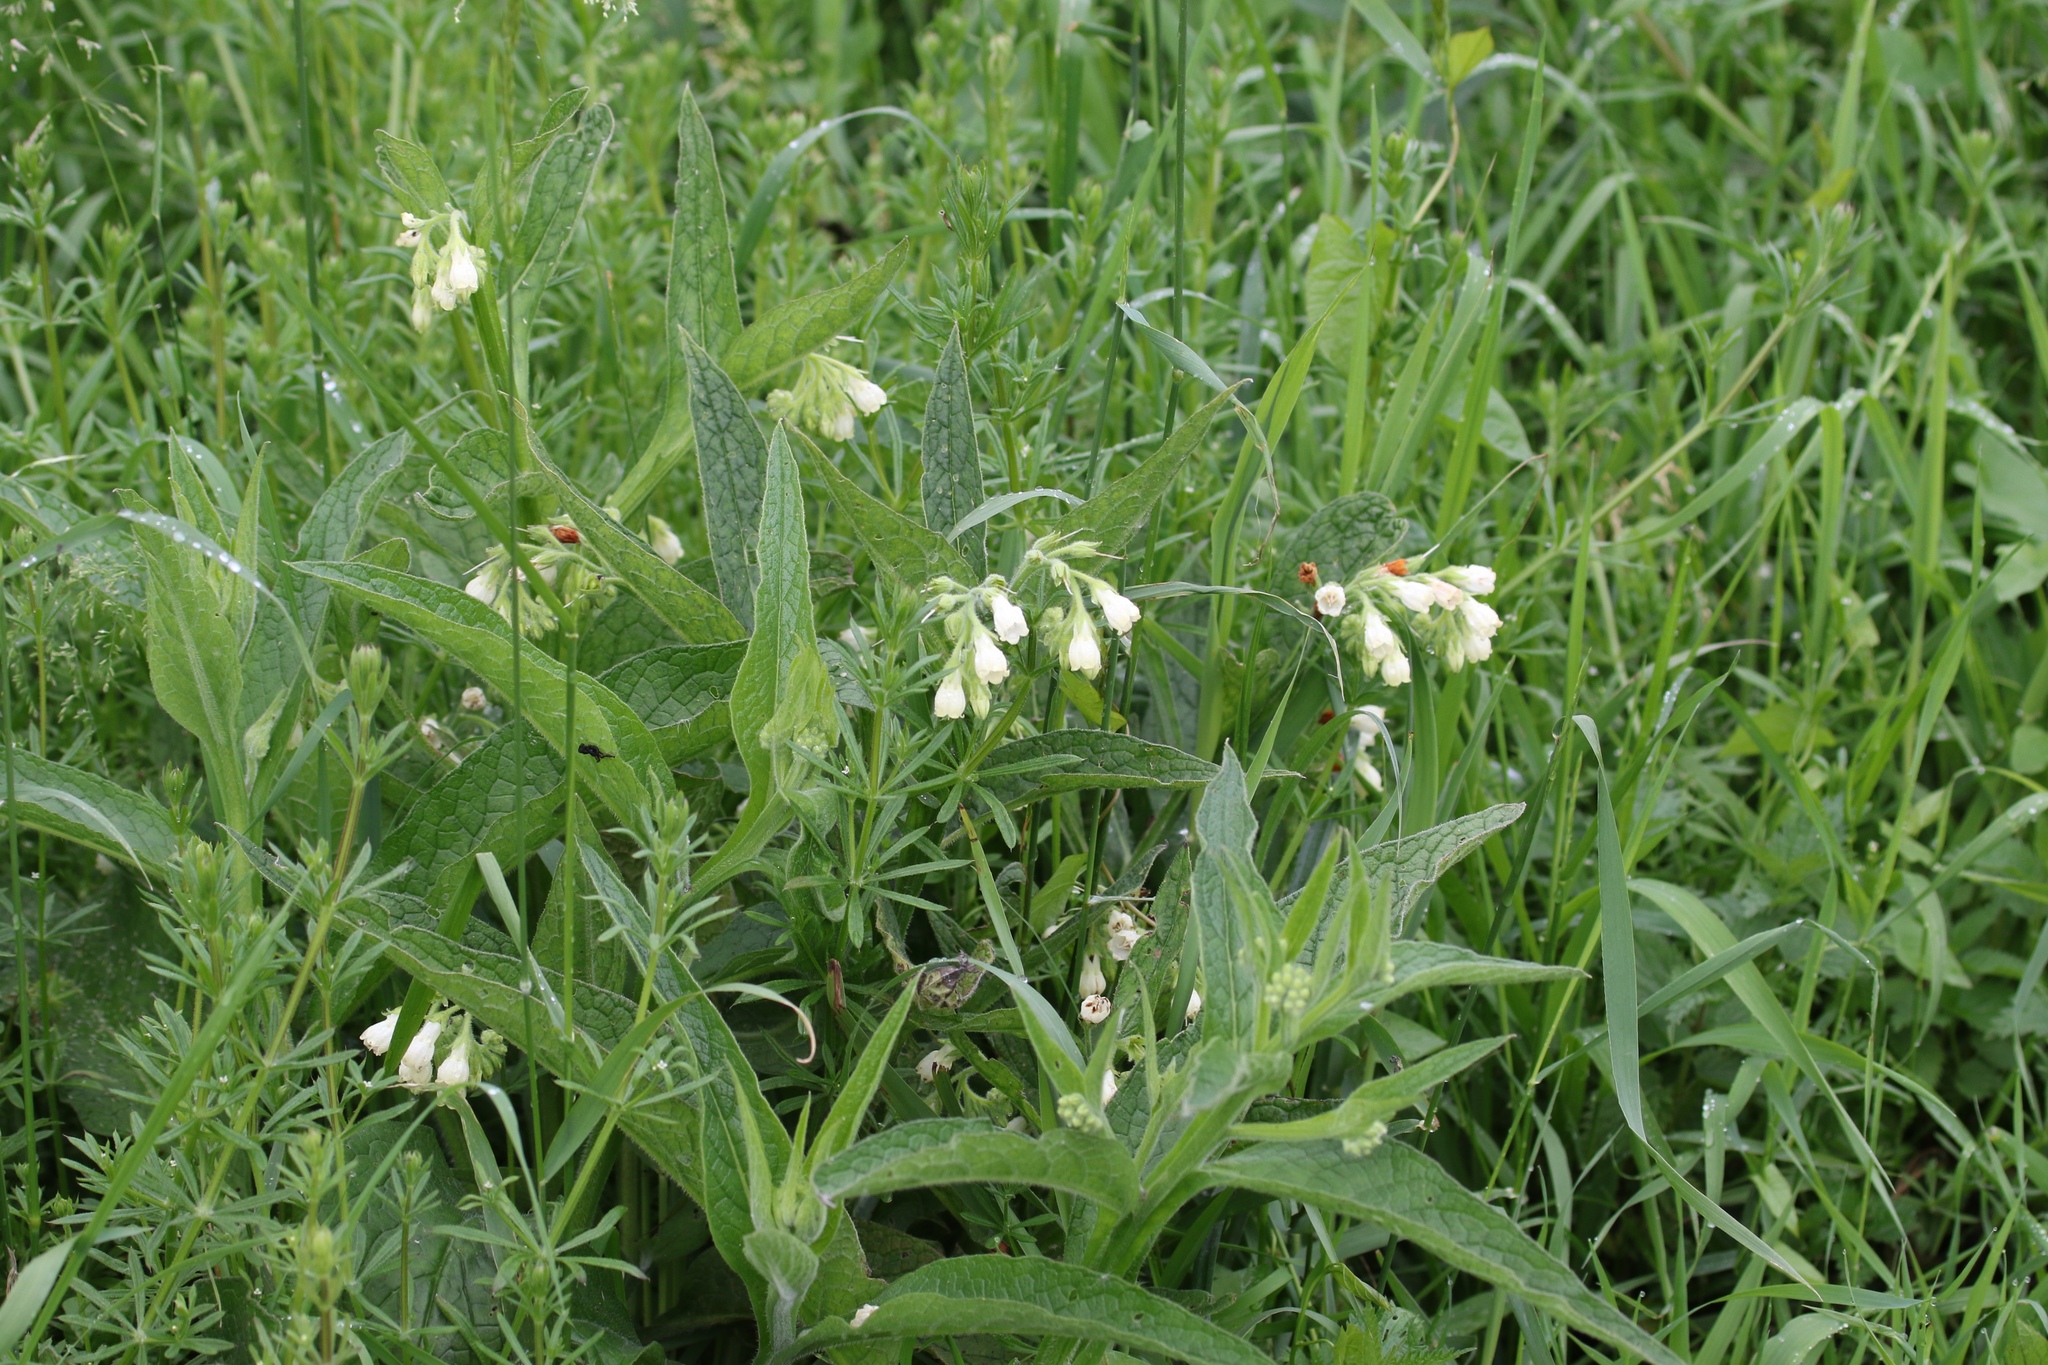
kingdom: Plantae
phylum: Tracheophyta
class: Magnoliopsida
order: Boraginales
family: Boraginaceae
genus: Symphytum
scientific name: Symphytum officinale
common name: Common comfrey
